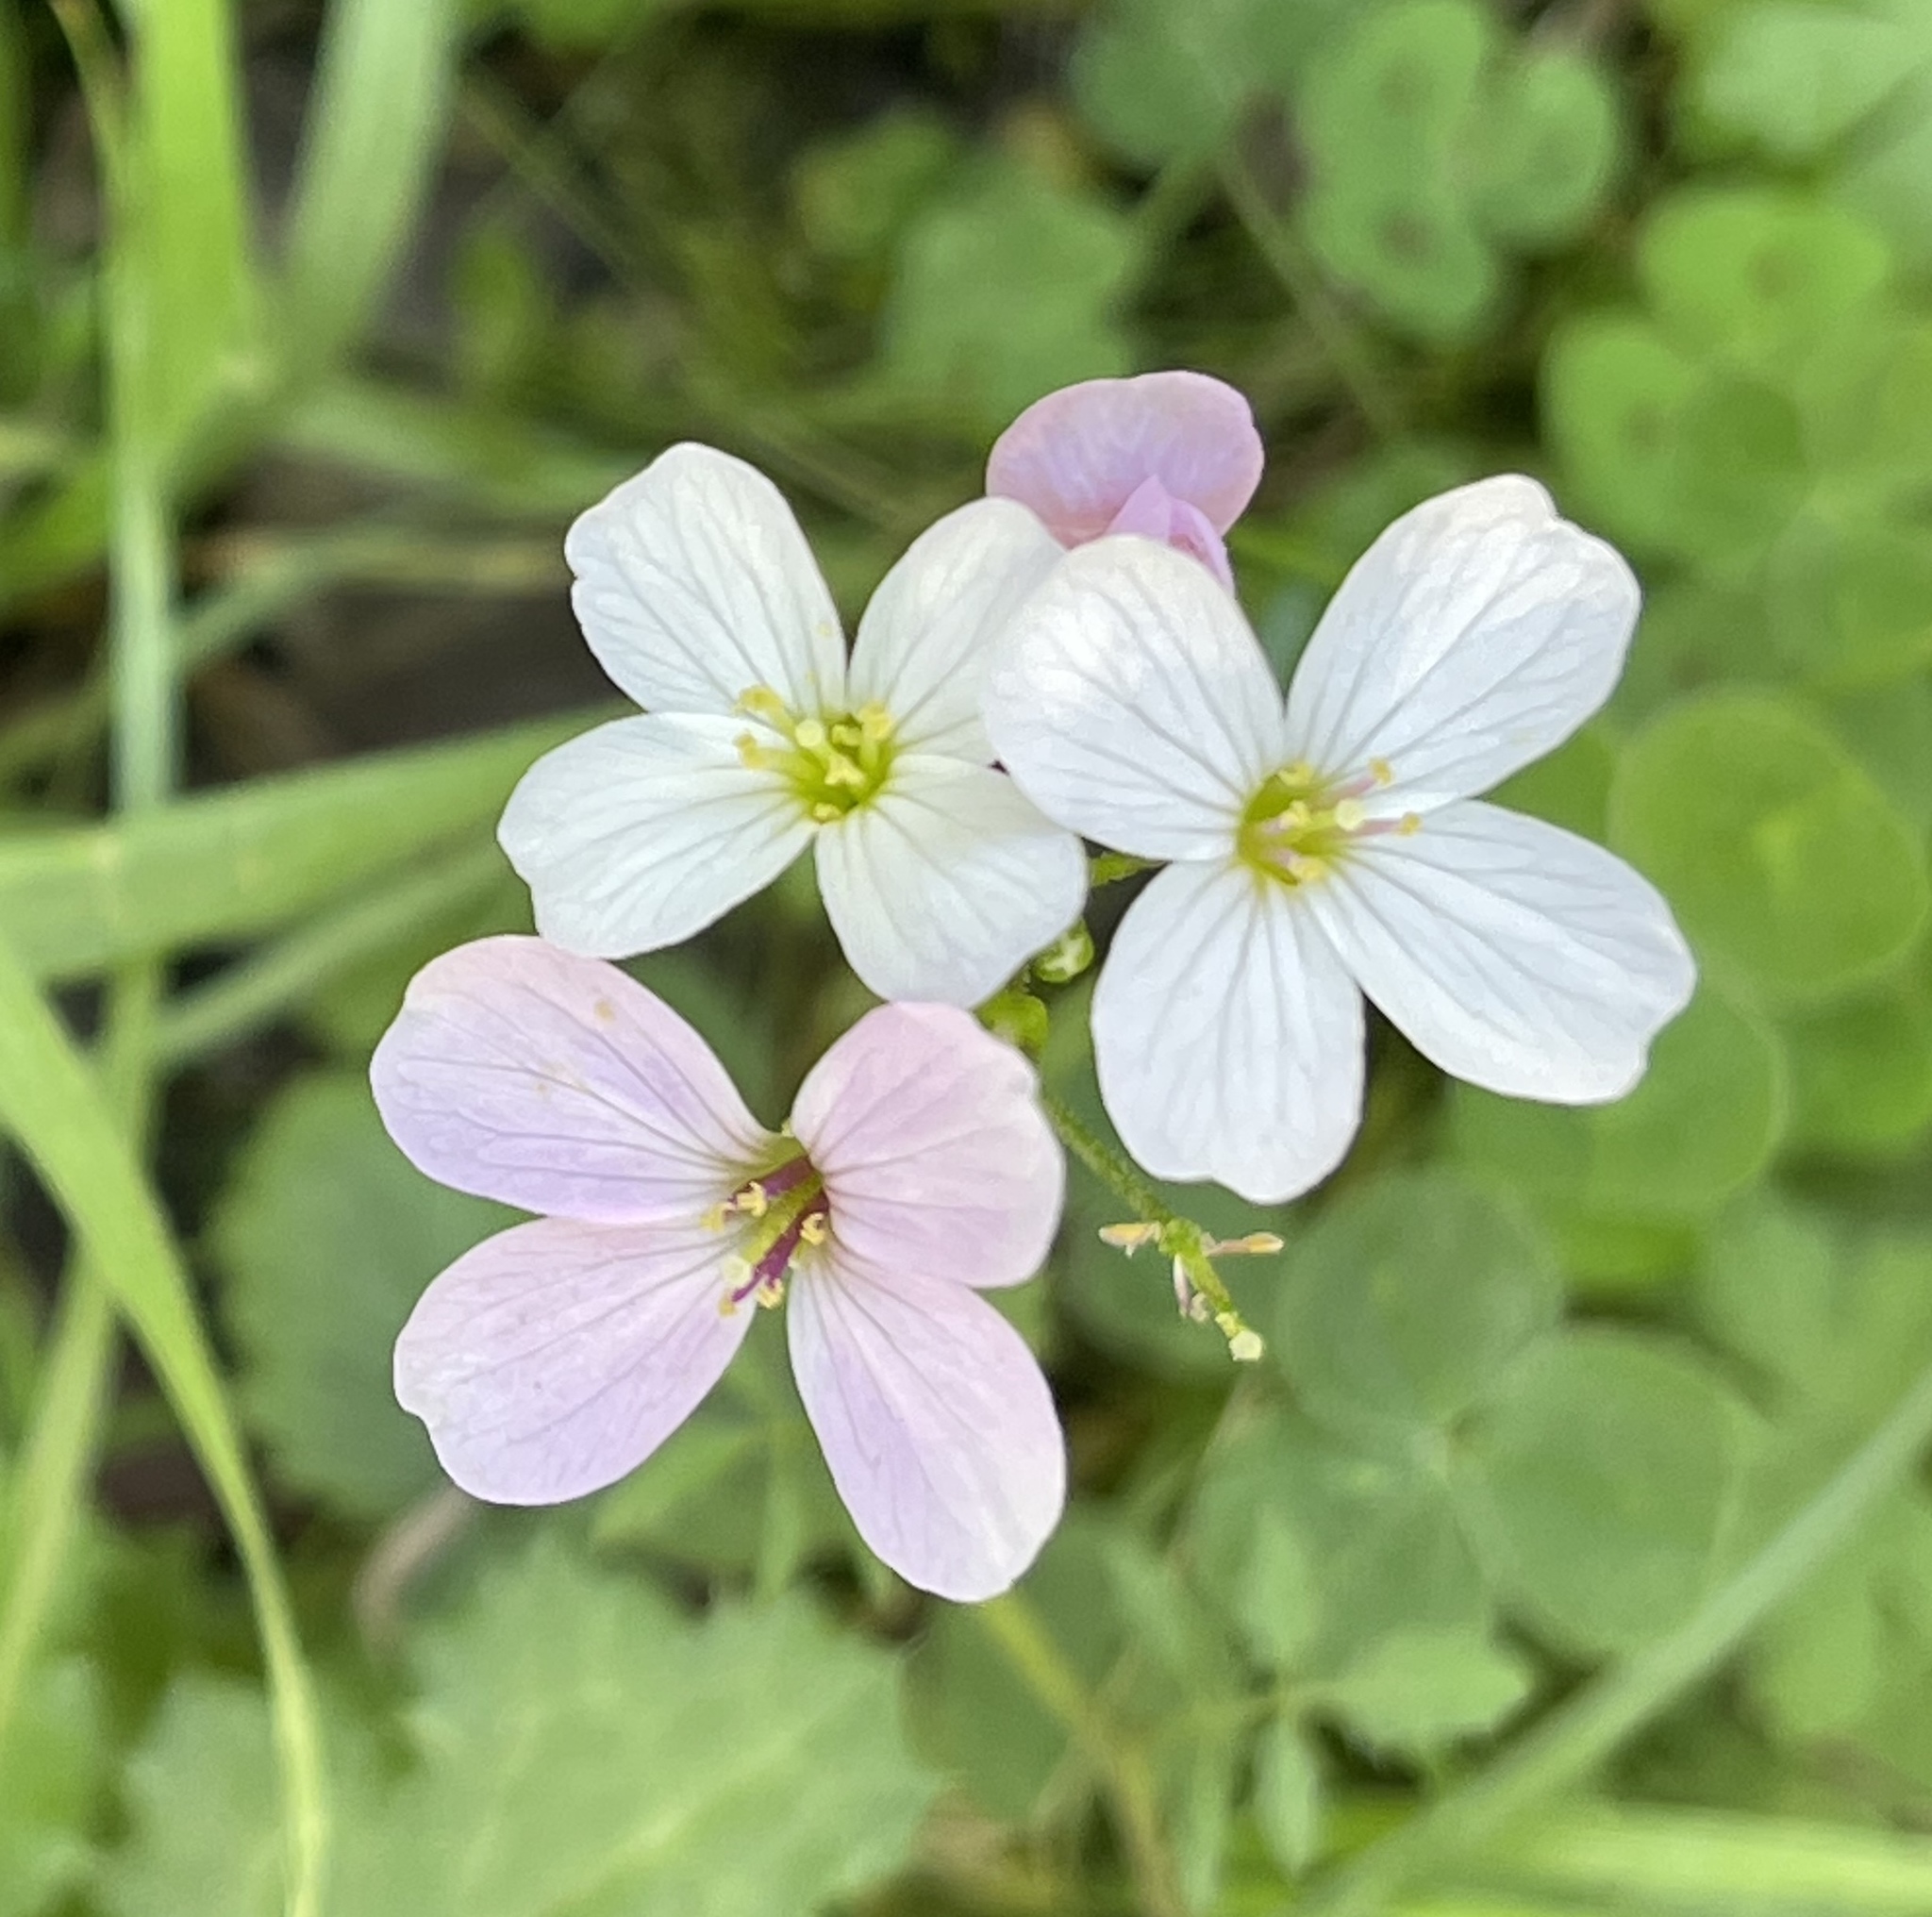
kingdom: Plantae
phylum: Tracheophyta
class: Magnoliopsida
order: Brassicales
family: Brassicaceae
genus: Cardamine
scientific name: Cardamine californica
